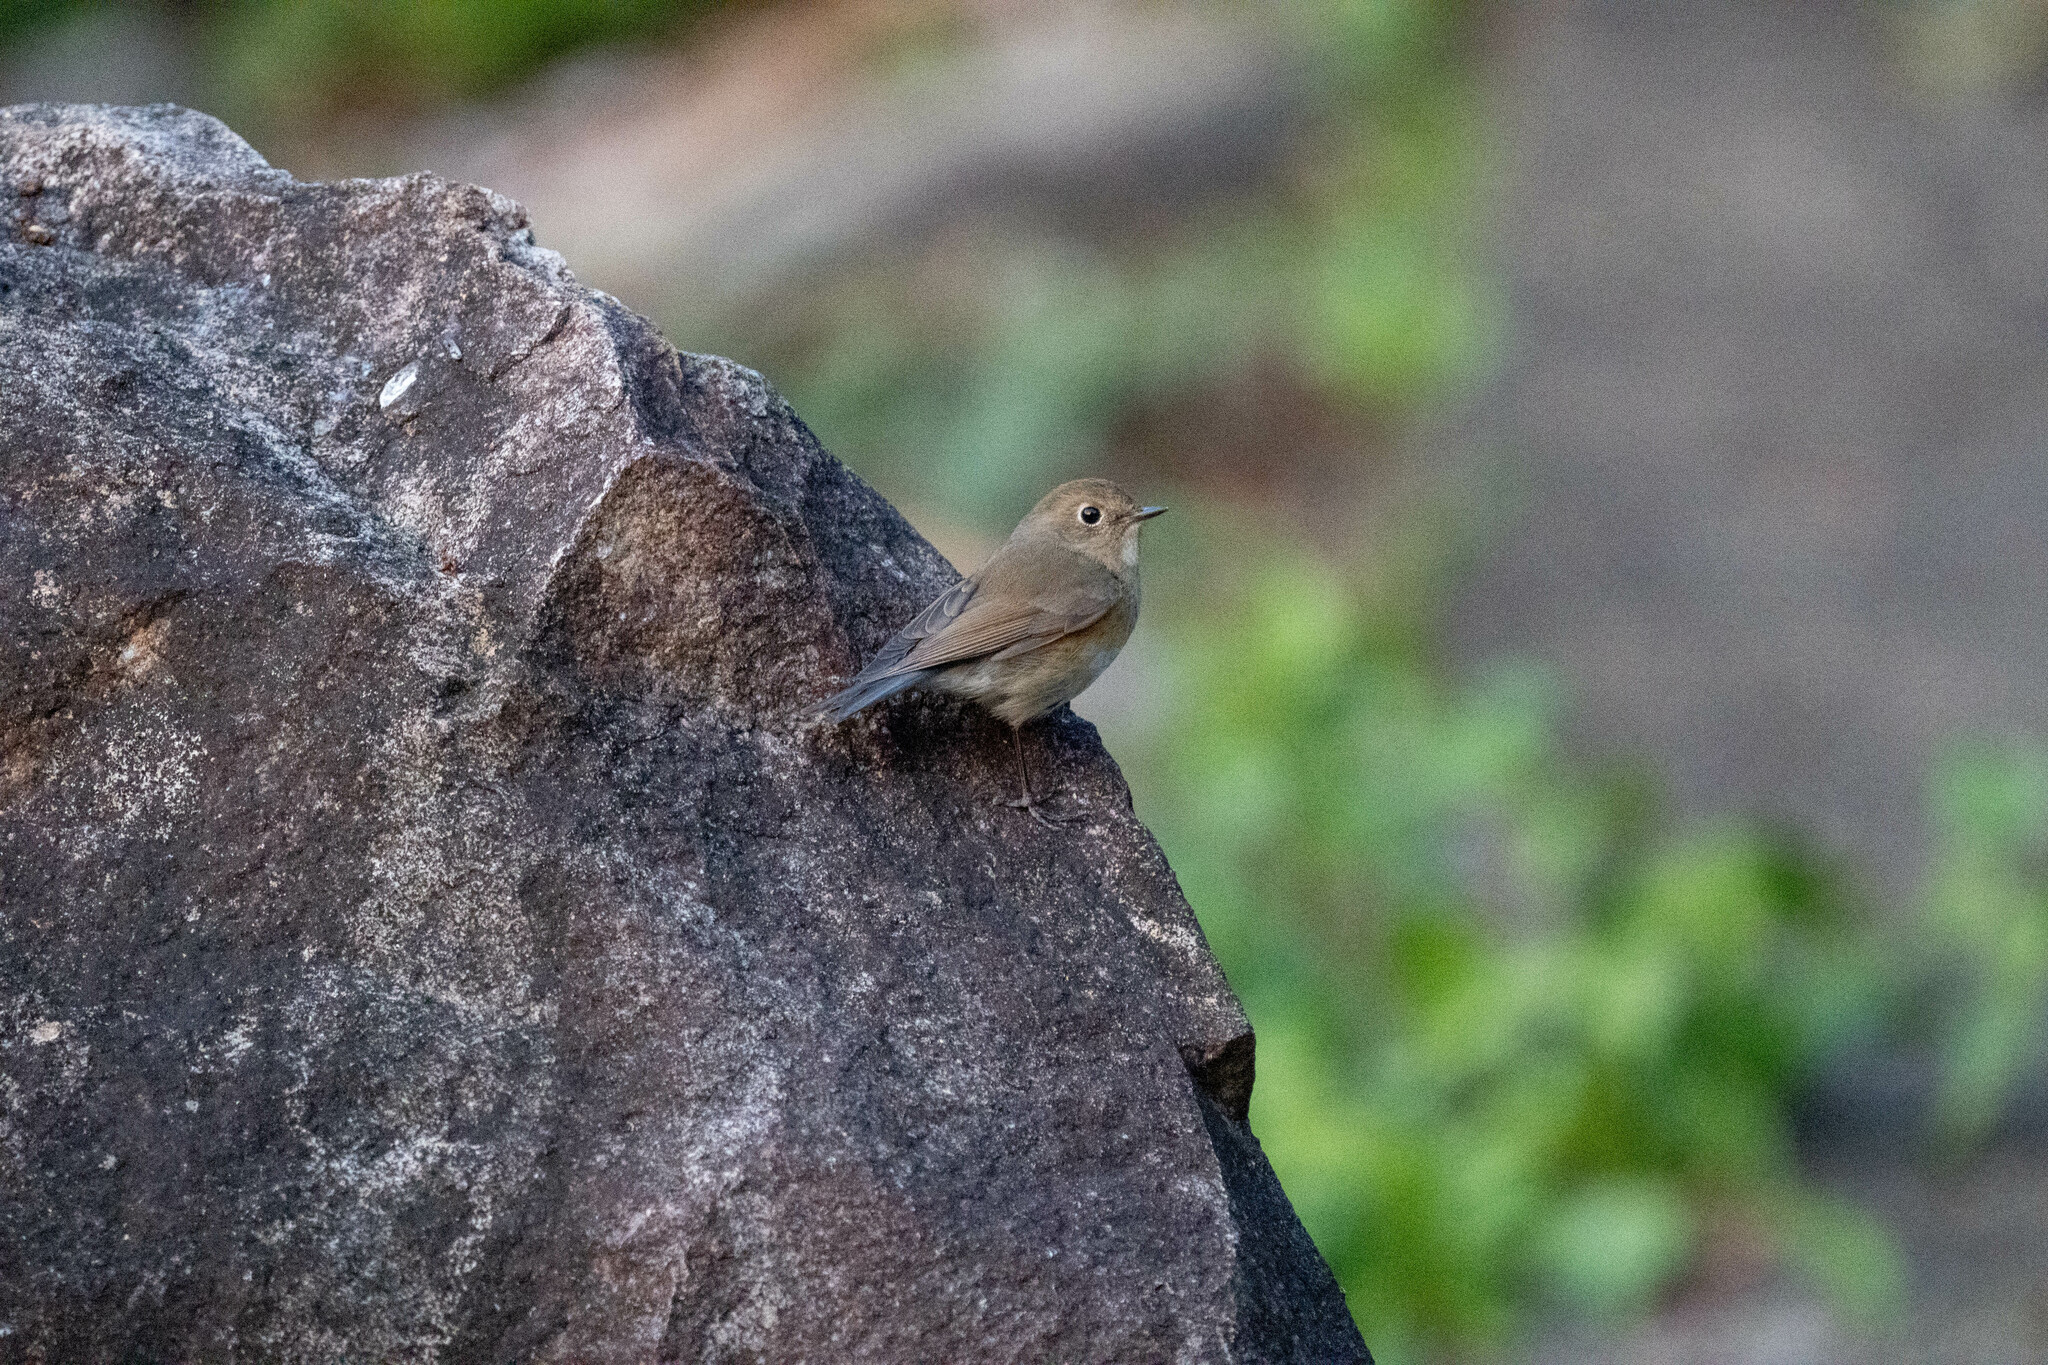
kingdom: Animalia
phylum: Chordata
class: Aves
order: Passeriformes
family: Muscicapidae
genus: Tarsiger
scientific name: Tarsiger cyanurus
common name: Red-flanked bluetail
